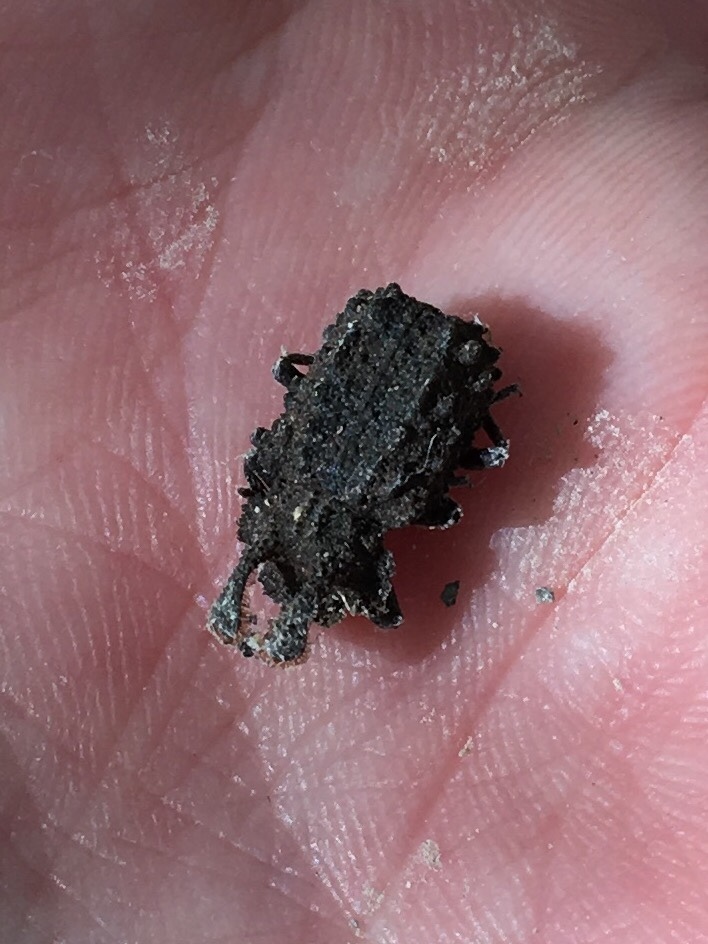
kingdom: Animalia
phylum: Arthropoda
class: Insecta
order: Coleoptera
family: Tenebrionidae
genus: Gnatocerus
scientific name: Gnatocerus cornutus
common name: Broad-horned flour beetle
